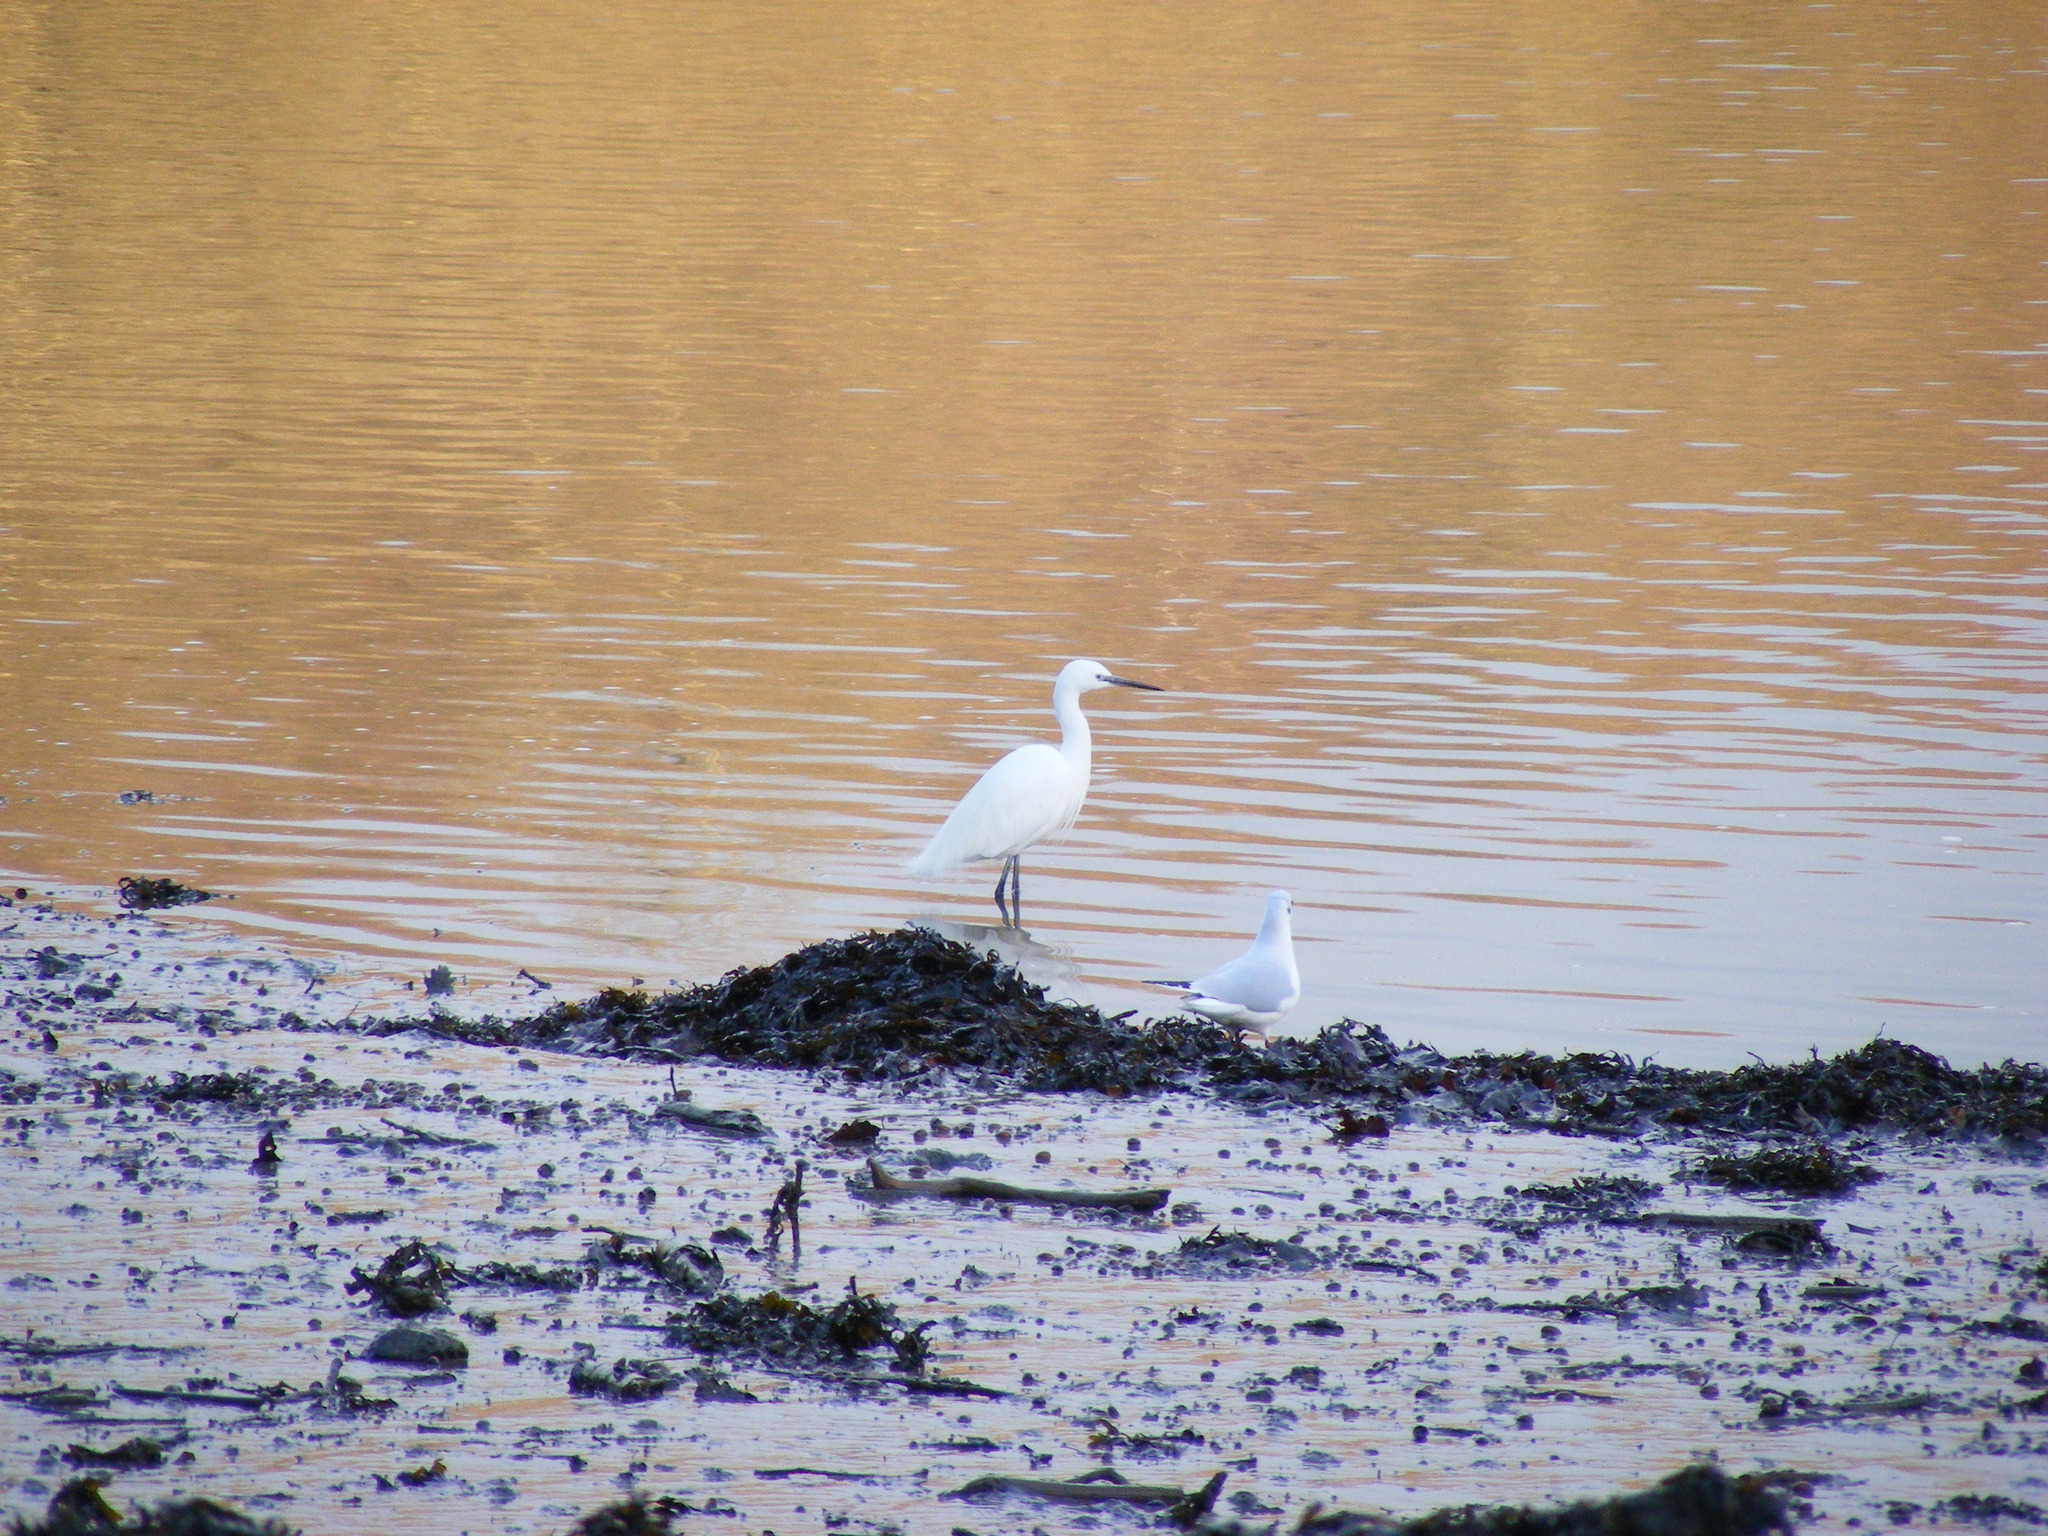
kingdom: Animalia
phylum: Chordata
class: Aves
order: Pelecaniformes
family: Ardeidae
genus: Egretta
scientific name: Egretta garzetta
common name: Little egret
